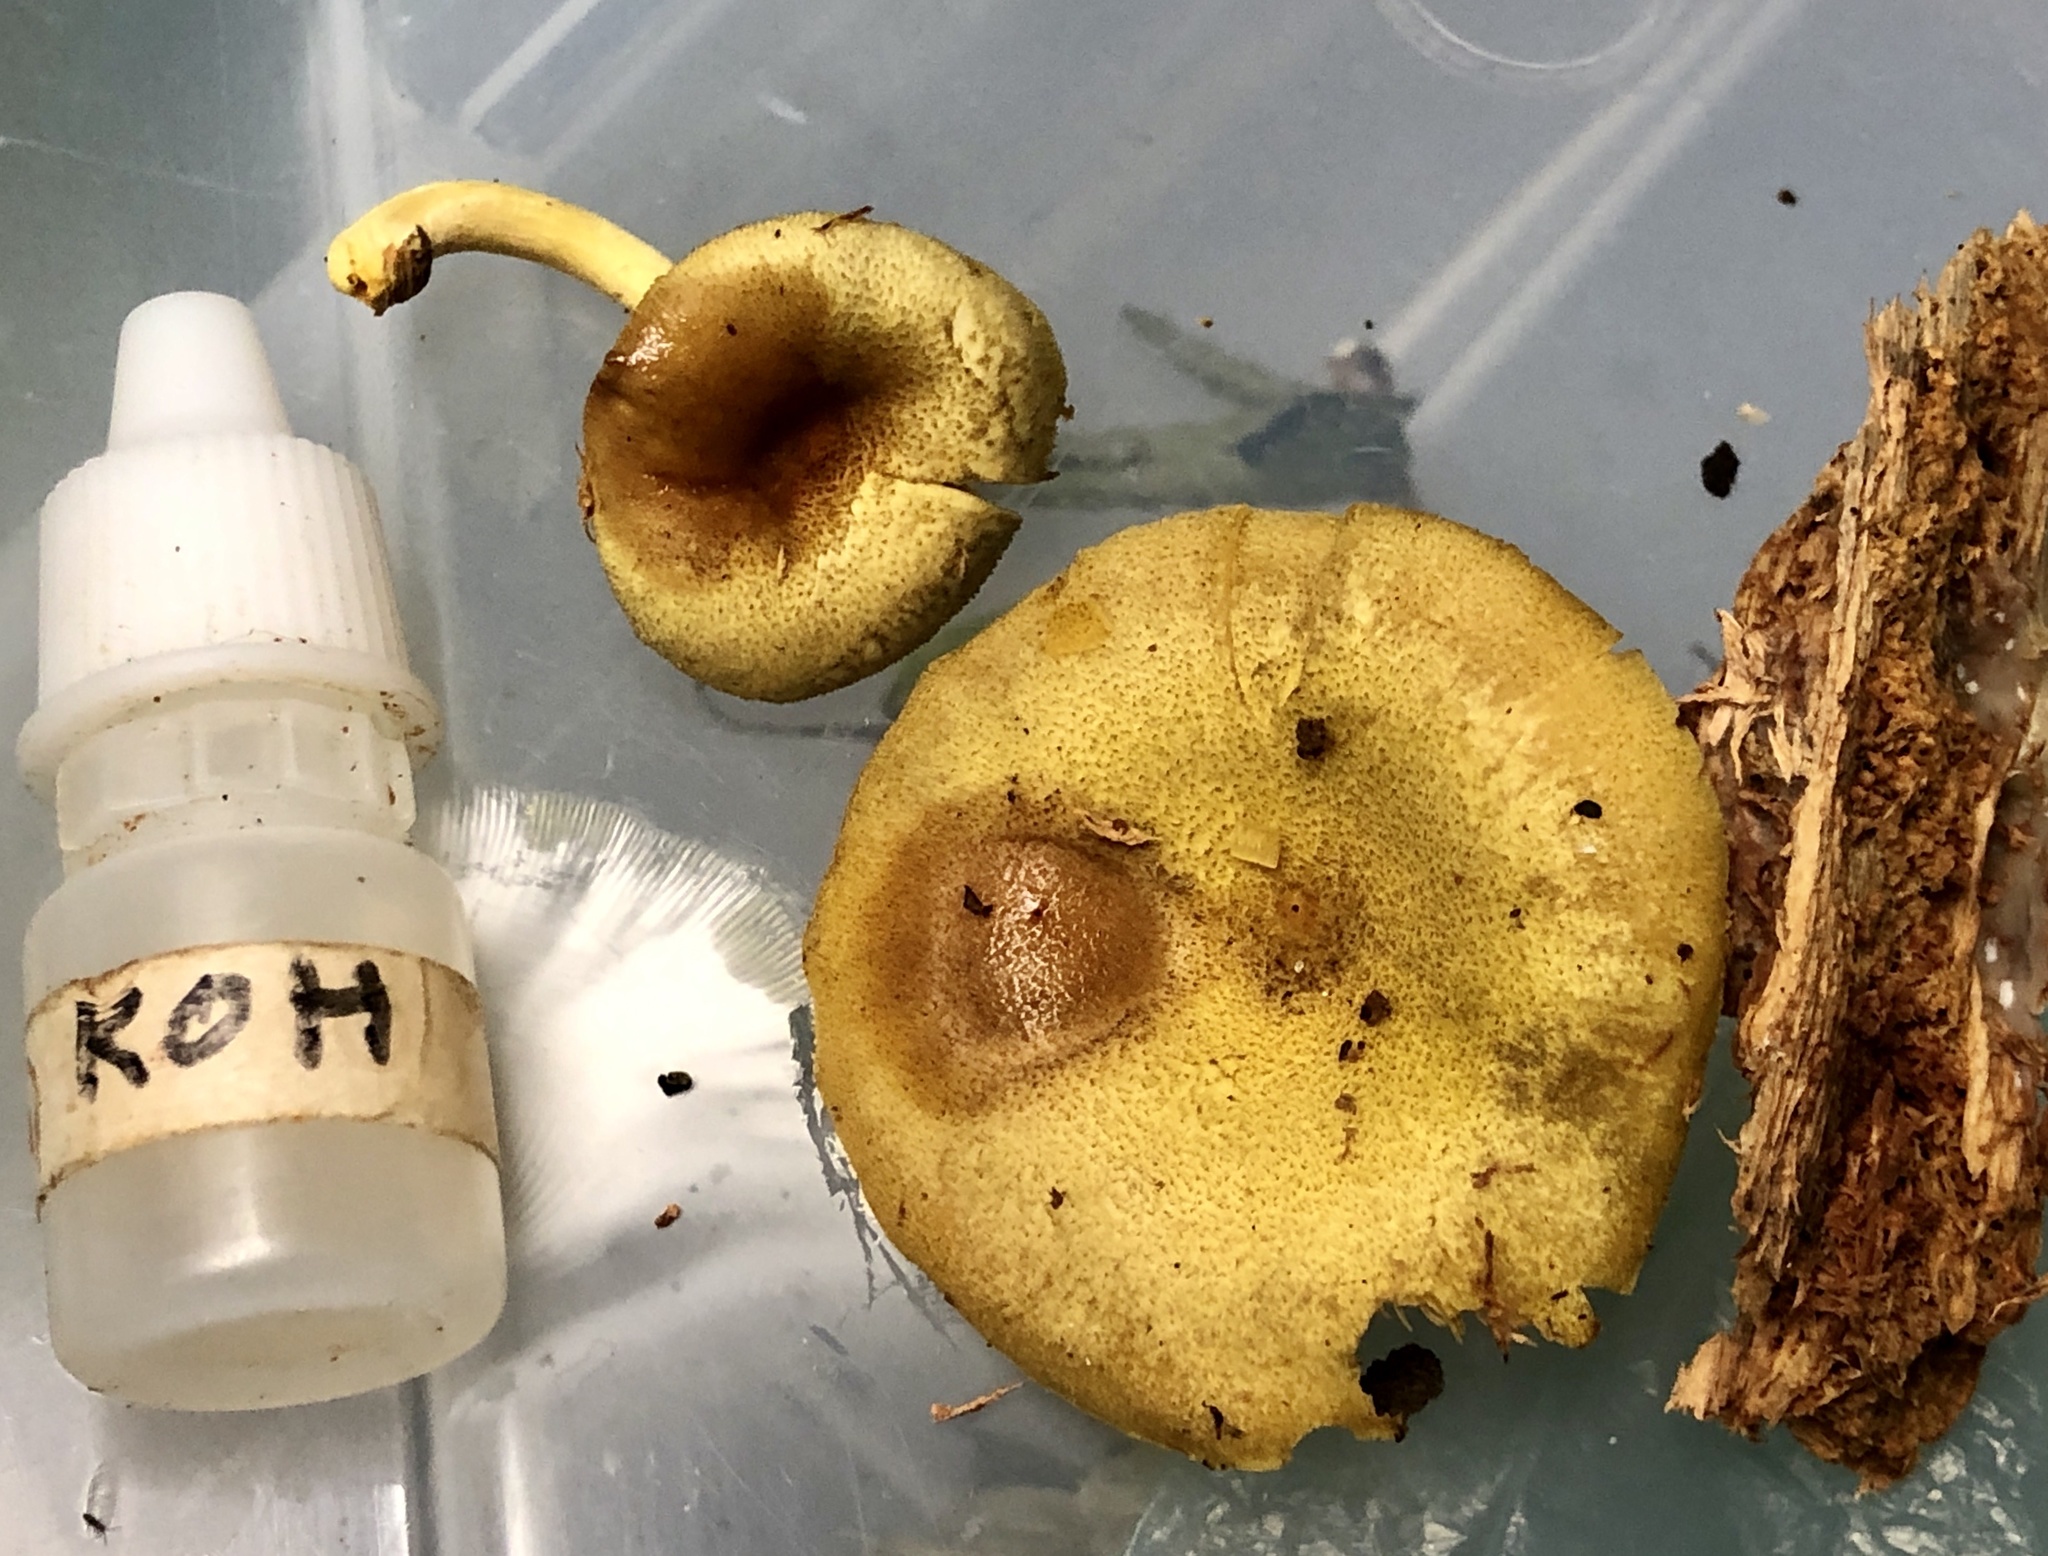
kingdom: Fungi
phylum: Basidiomycota
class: Agaricomycetes
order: Agaricales
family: Tricholomataceae
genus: Tricholomopsis
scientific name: Tricholomopsis decora
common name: Prunes and custard
